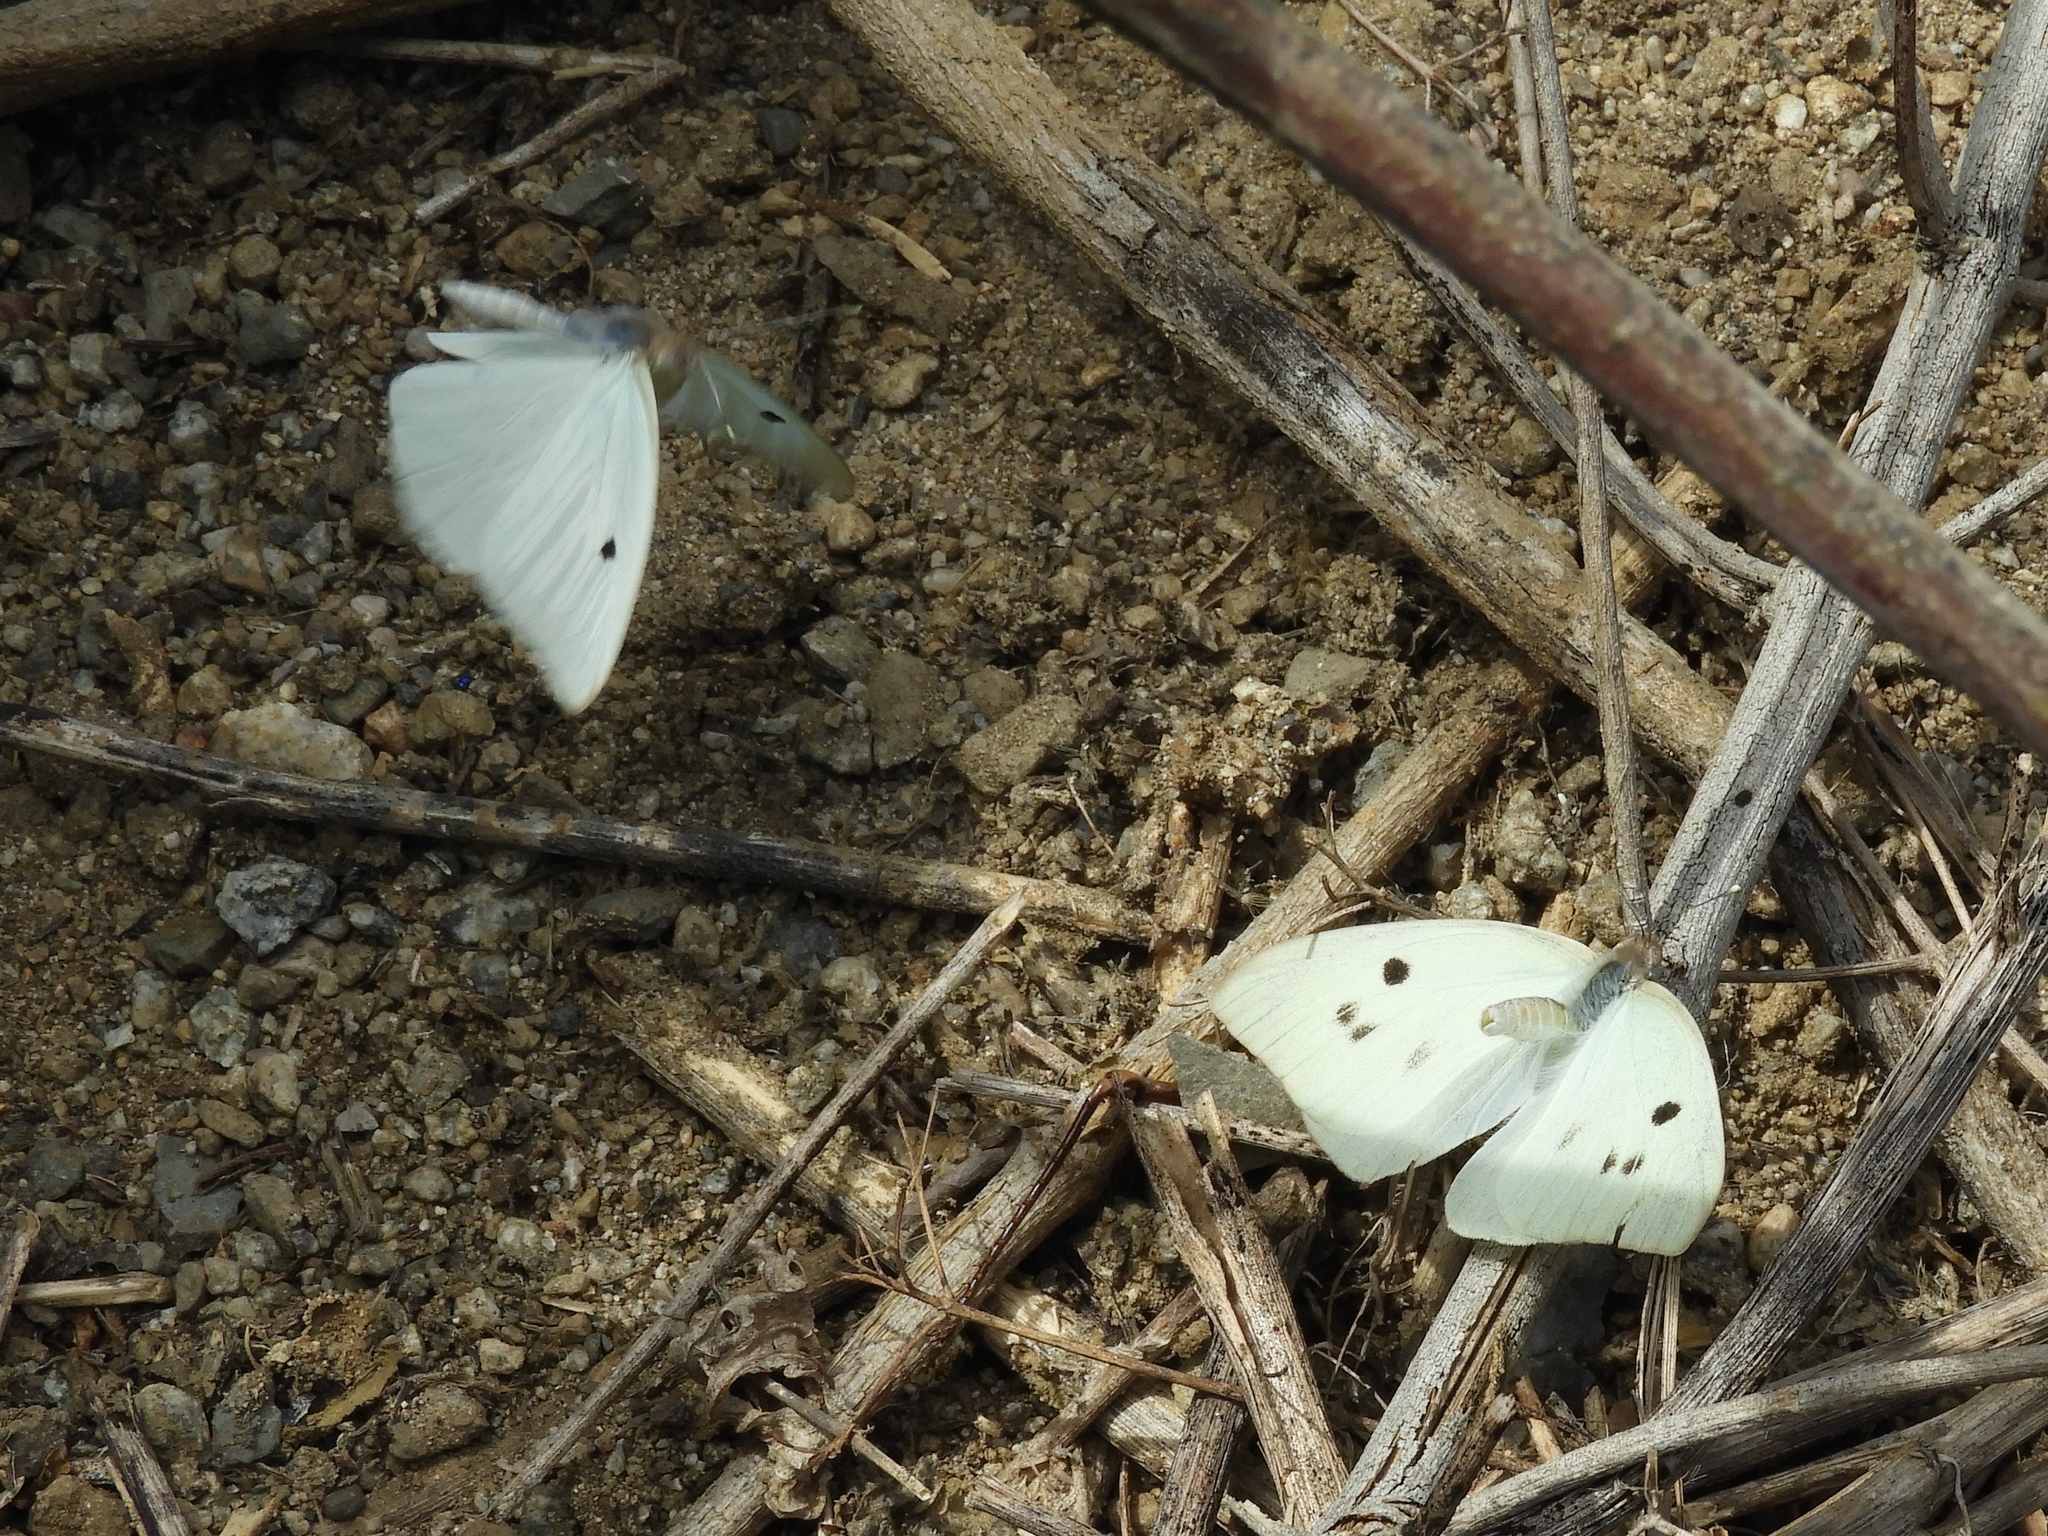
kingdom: Animalia
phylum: Arthropoda
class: Insecta
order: Lepidoptera
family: Pieridae
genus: Ganyra
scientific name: Ganyra josephina
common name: Giant white
